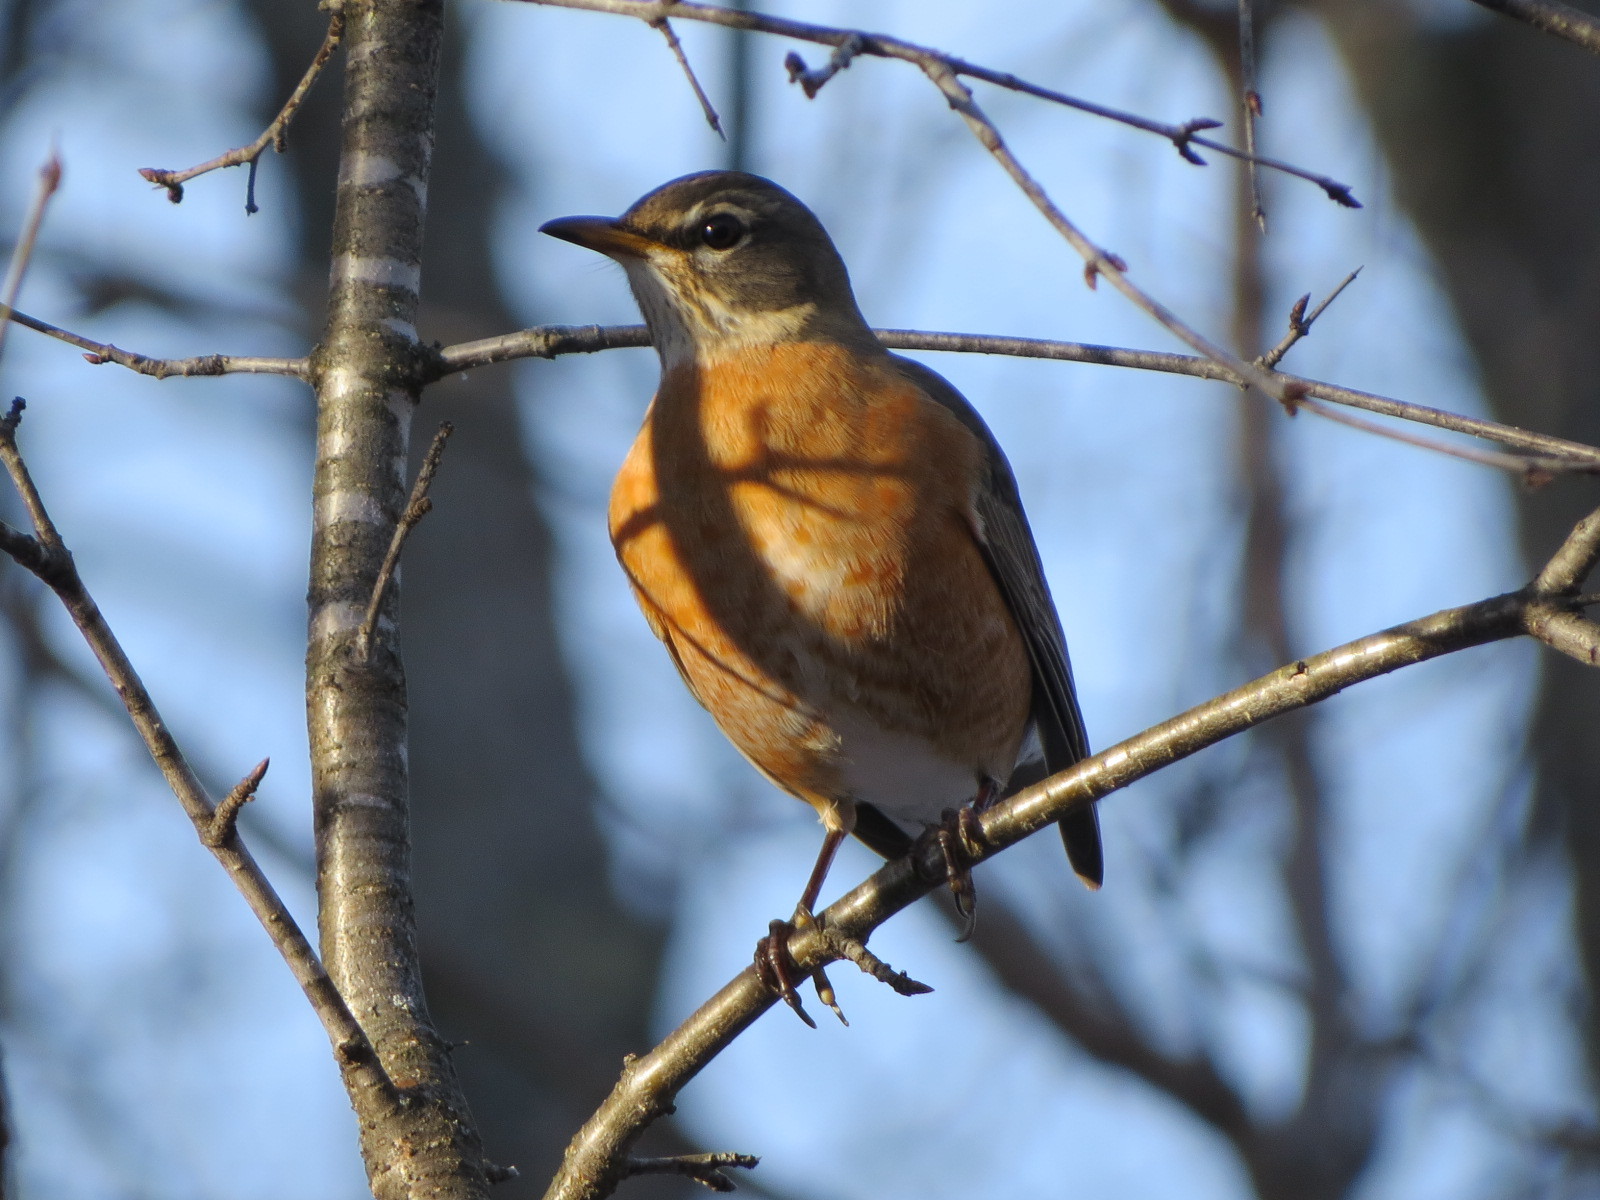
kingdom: Animalia
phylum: Chordata
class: Aves
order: Passeriformes
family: Turdidae
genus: Turdus
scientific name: Turdus migratorius
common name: American robin
